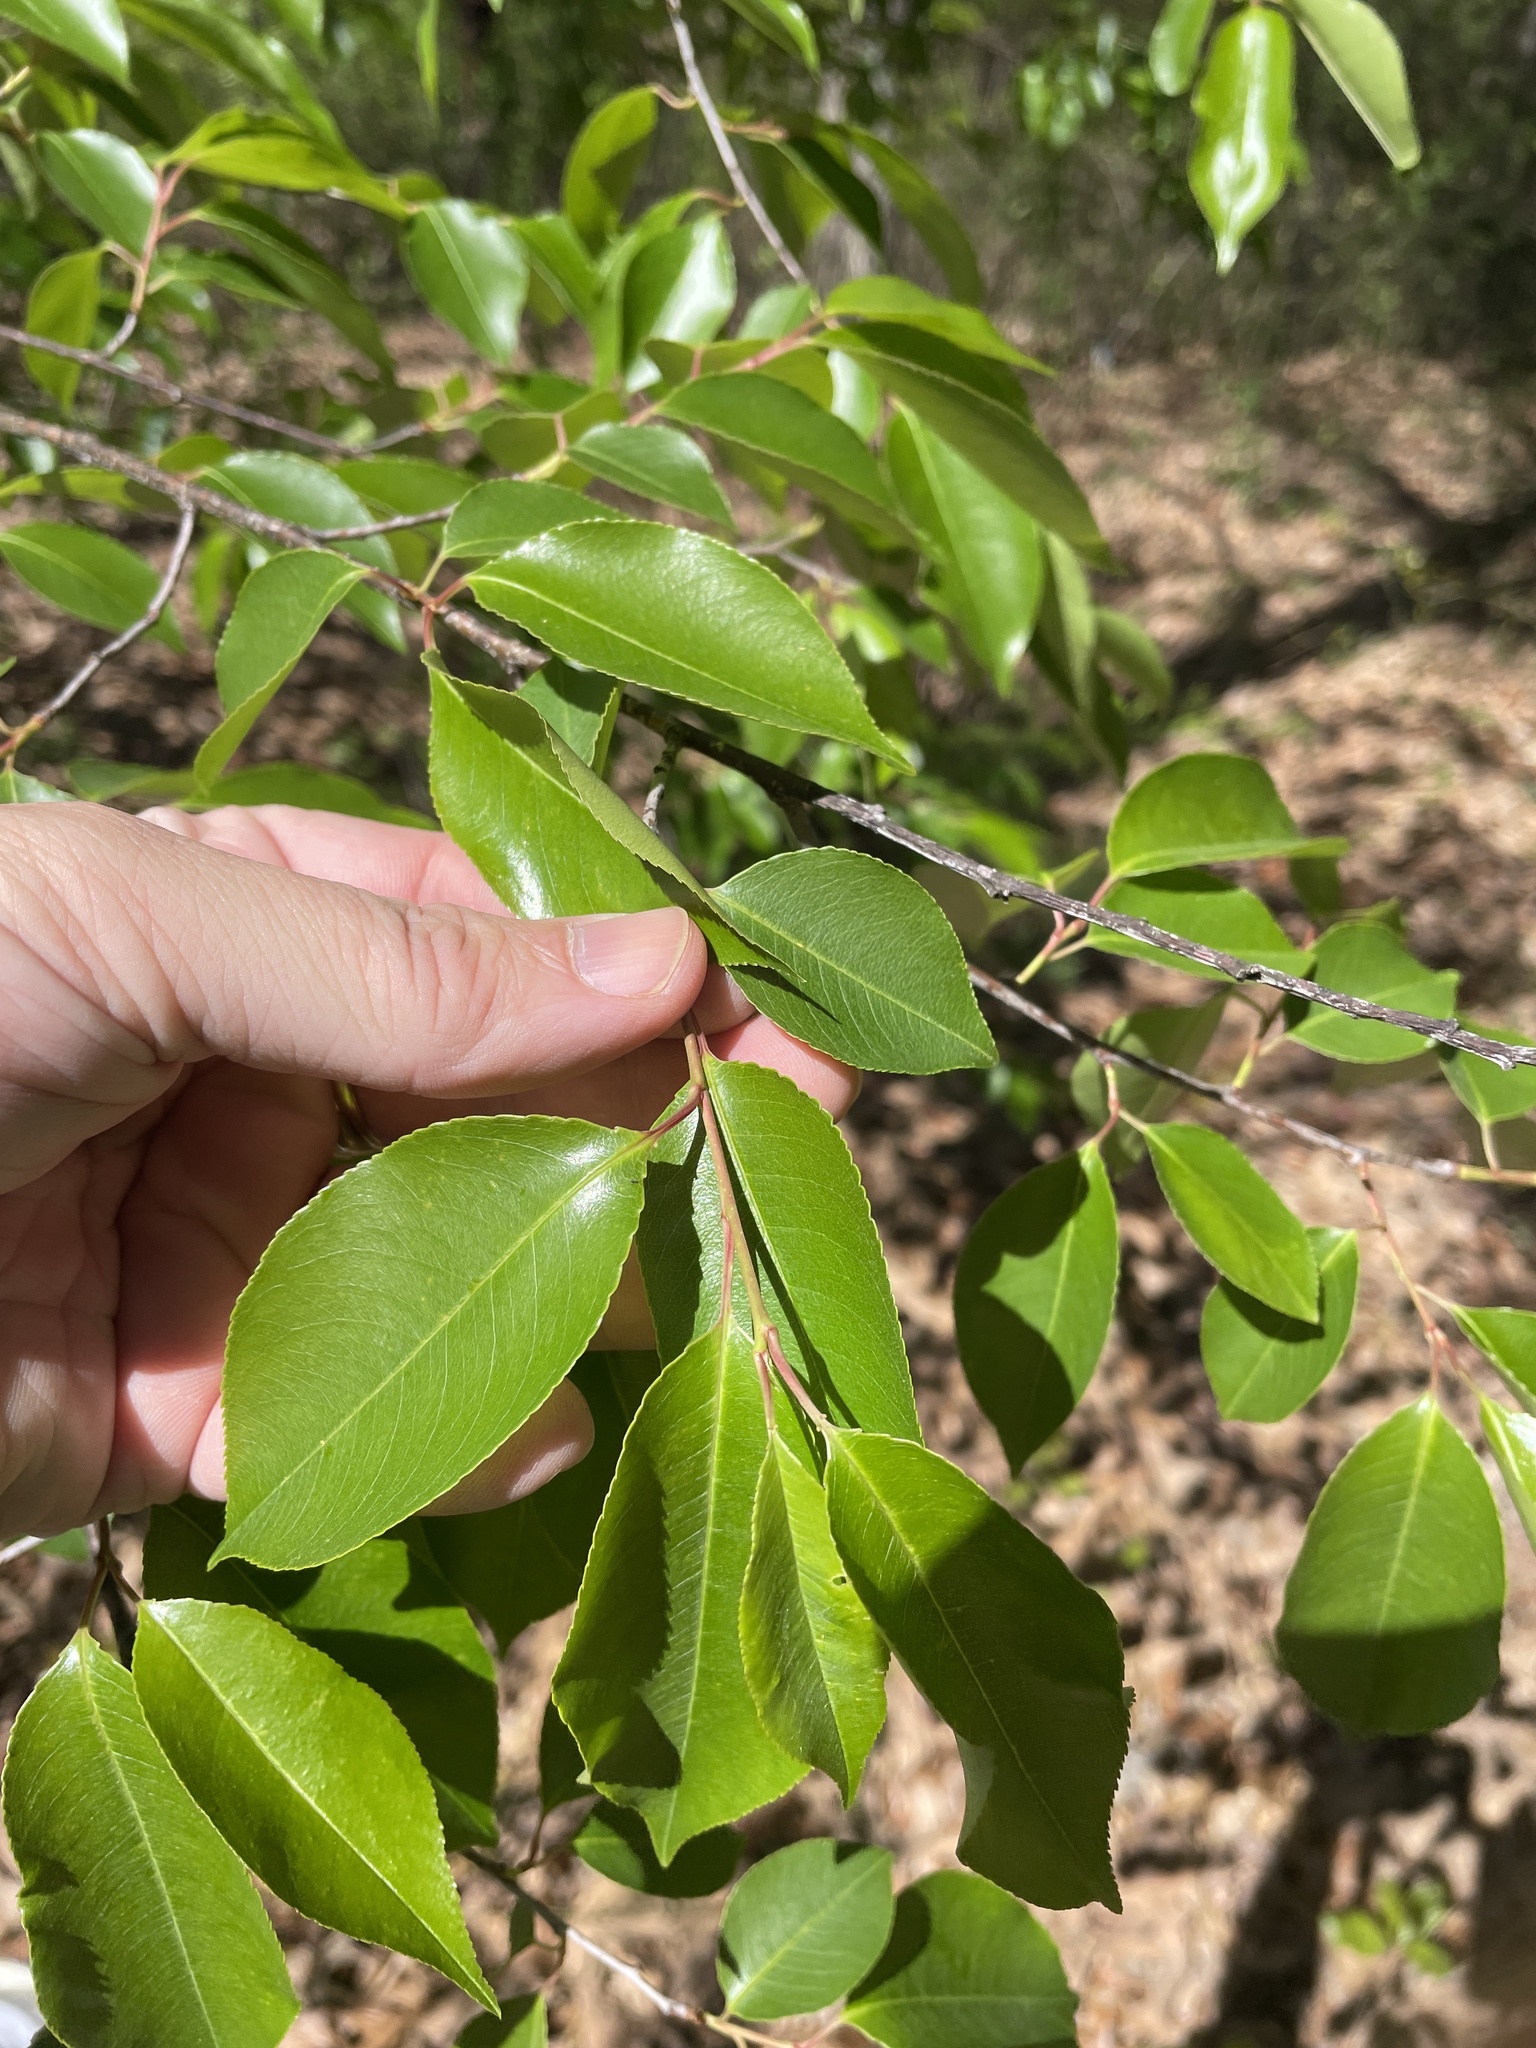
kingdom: Plantae
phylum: Tracheophyta
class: Magnoliopsida
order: Rosales
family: Rosaceae
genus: Prunus
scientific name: Prunus serotina
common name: Black cherry
